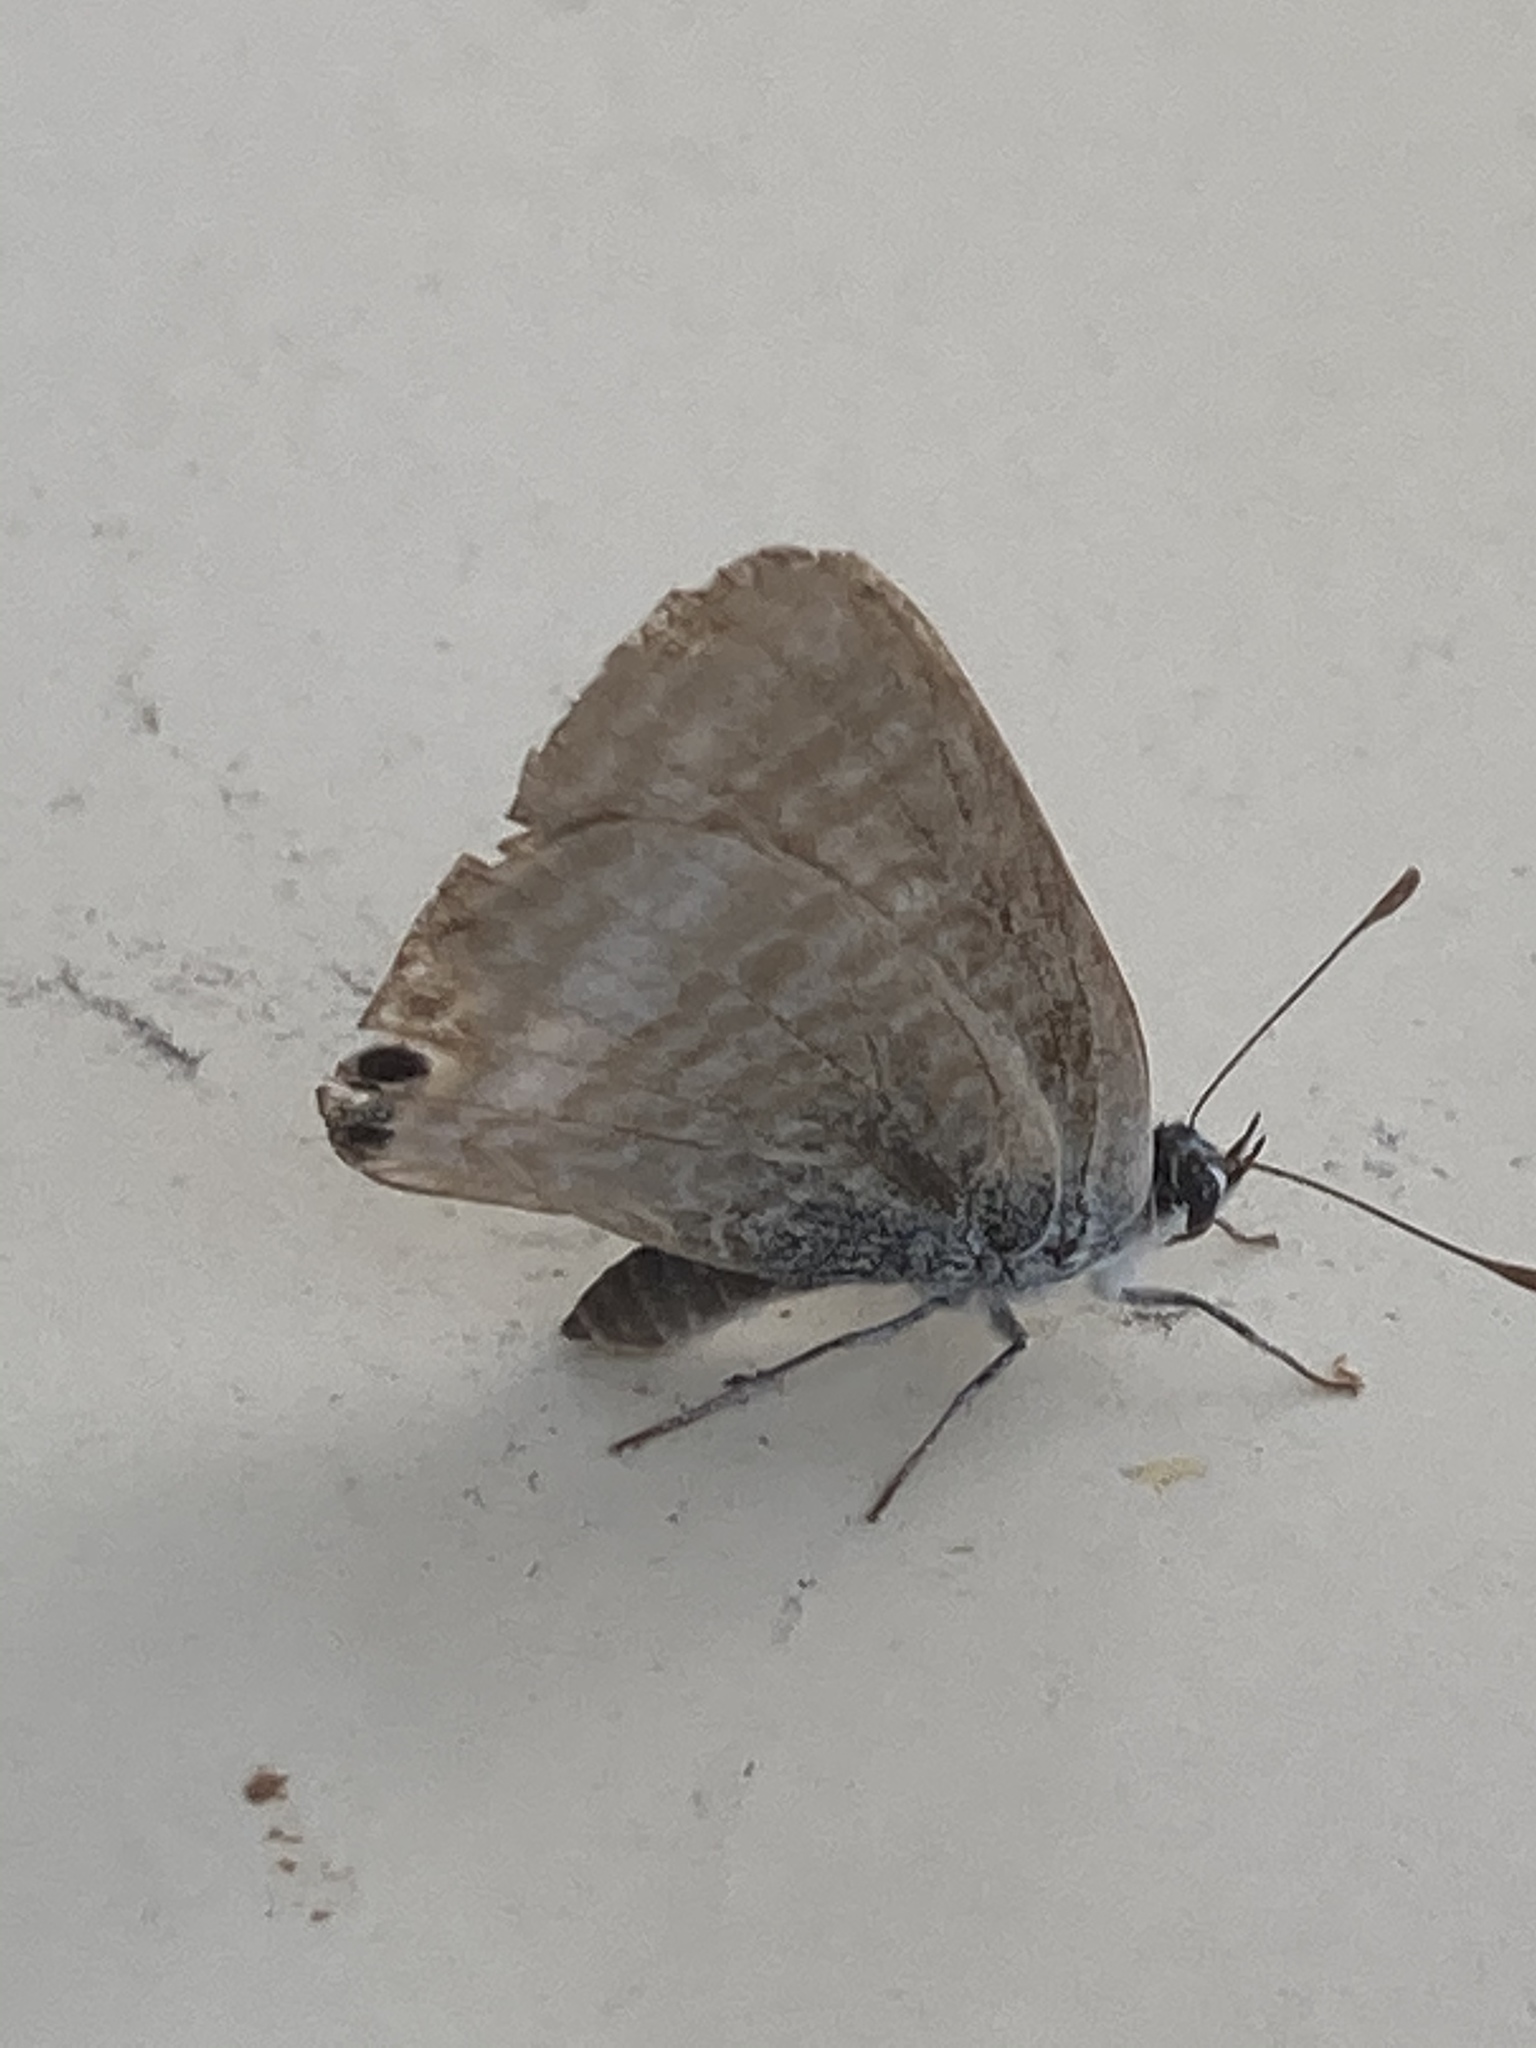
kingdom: Animalia
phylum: Arthropoda
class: Insecta
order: Lepidoptera
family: Lycaenidae
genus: Lampides
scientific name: Lampides boeticus
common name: Long-tailed blue
